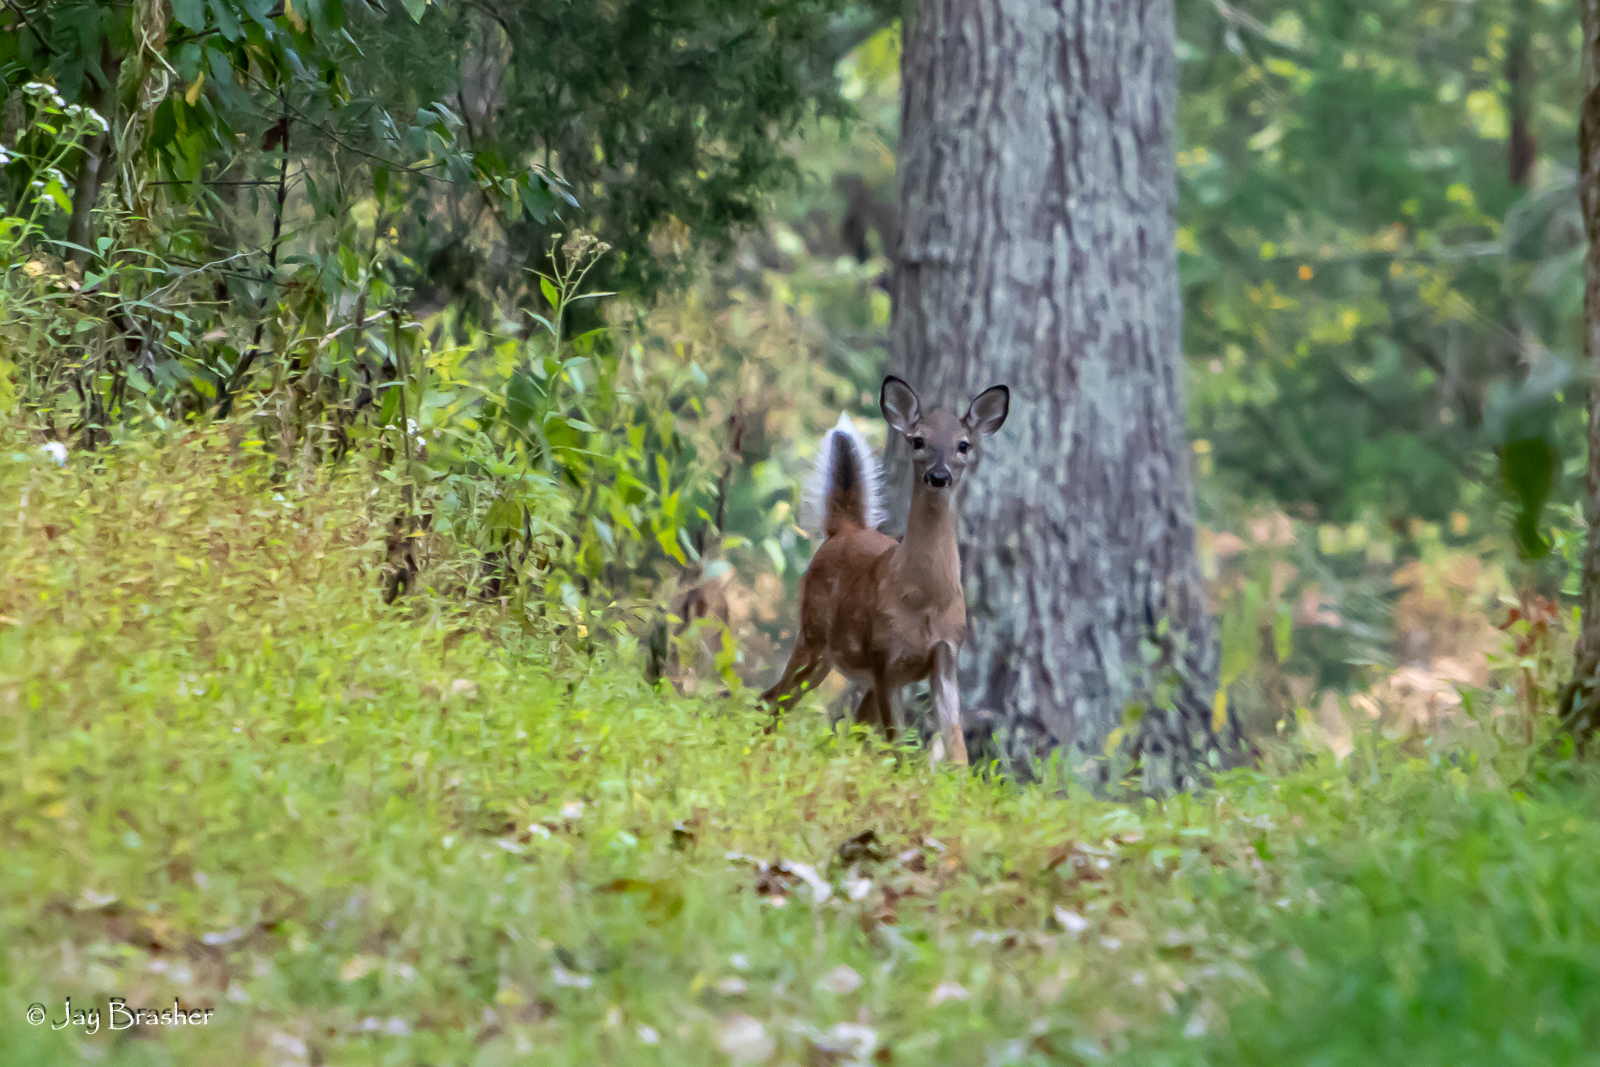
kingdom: Animalia
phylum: Chordata
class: Mammalia
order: Artiodactyla
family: Cervidae
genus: Odocoileus
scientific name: Odocoileus virginianus
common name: White-tailed deer
